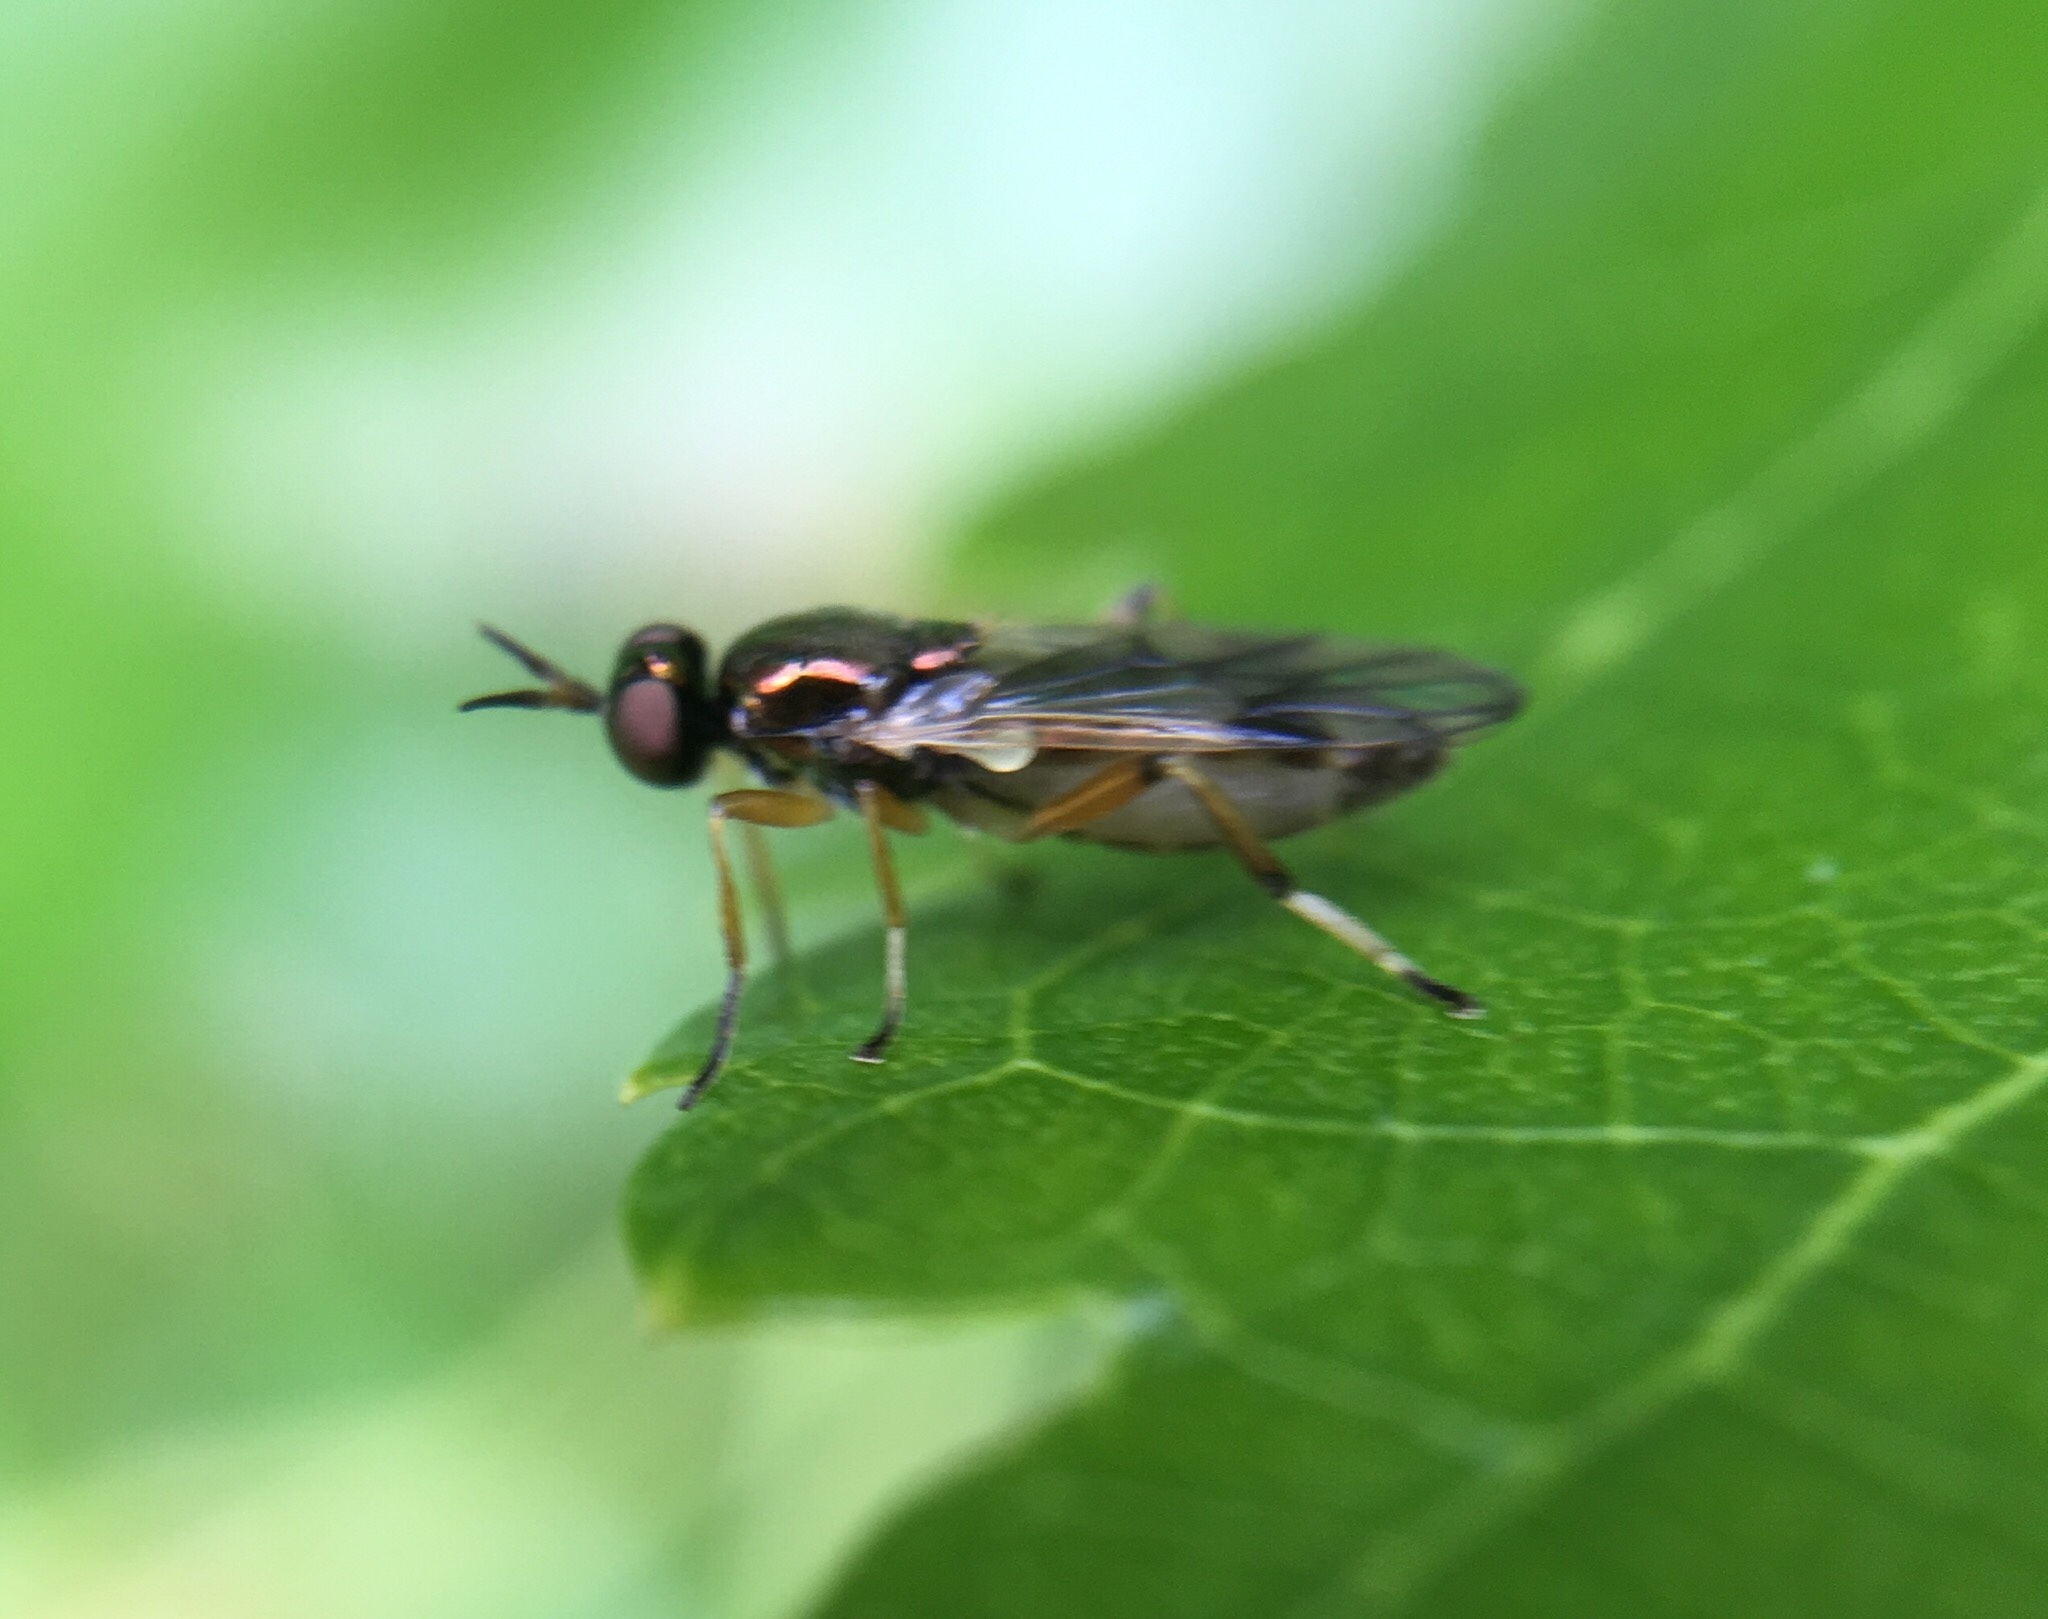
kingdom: Animalia
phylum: Arthropoda
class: Insecta
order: Diptera
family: Stratiomyidae
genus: Actina
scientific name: Actina viridis
